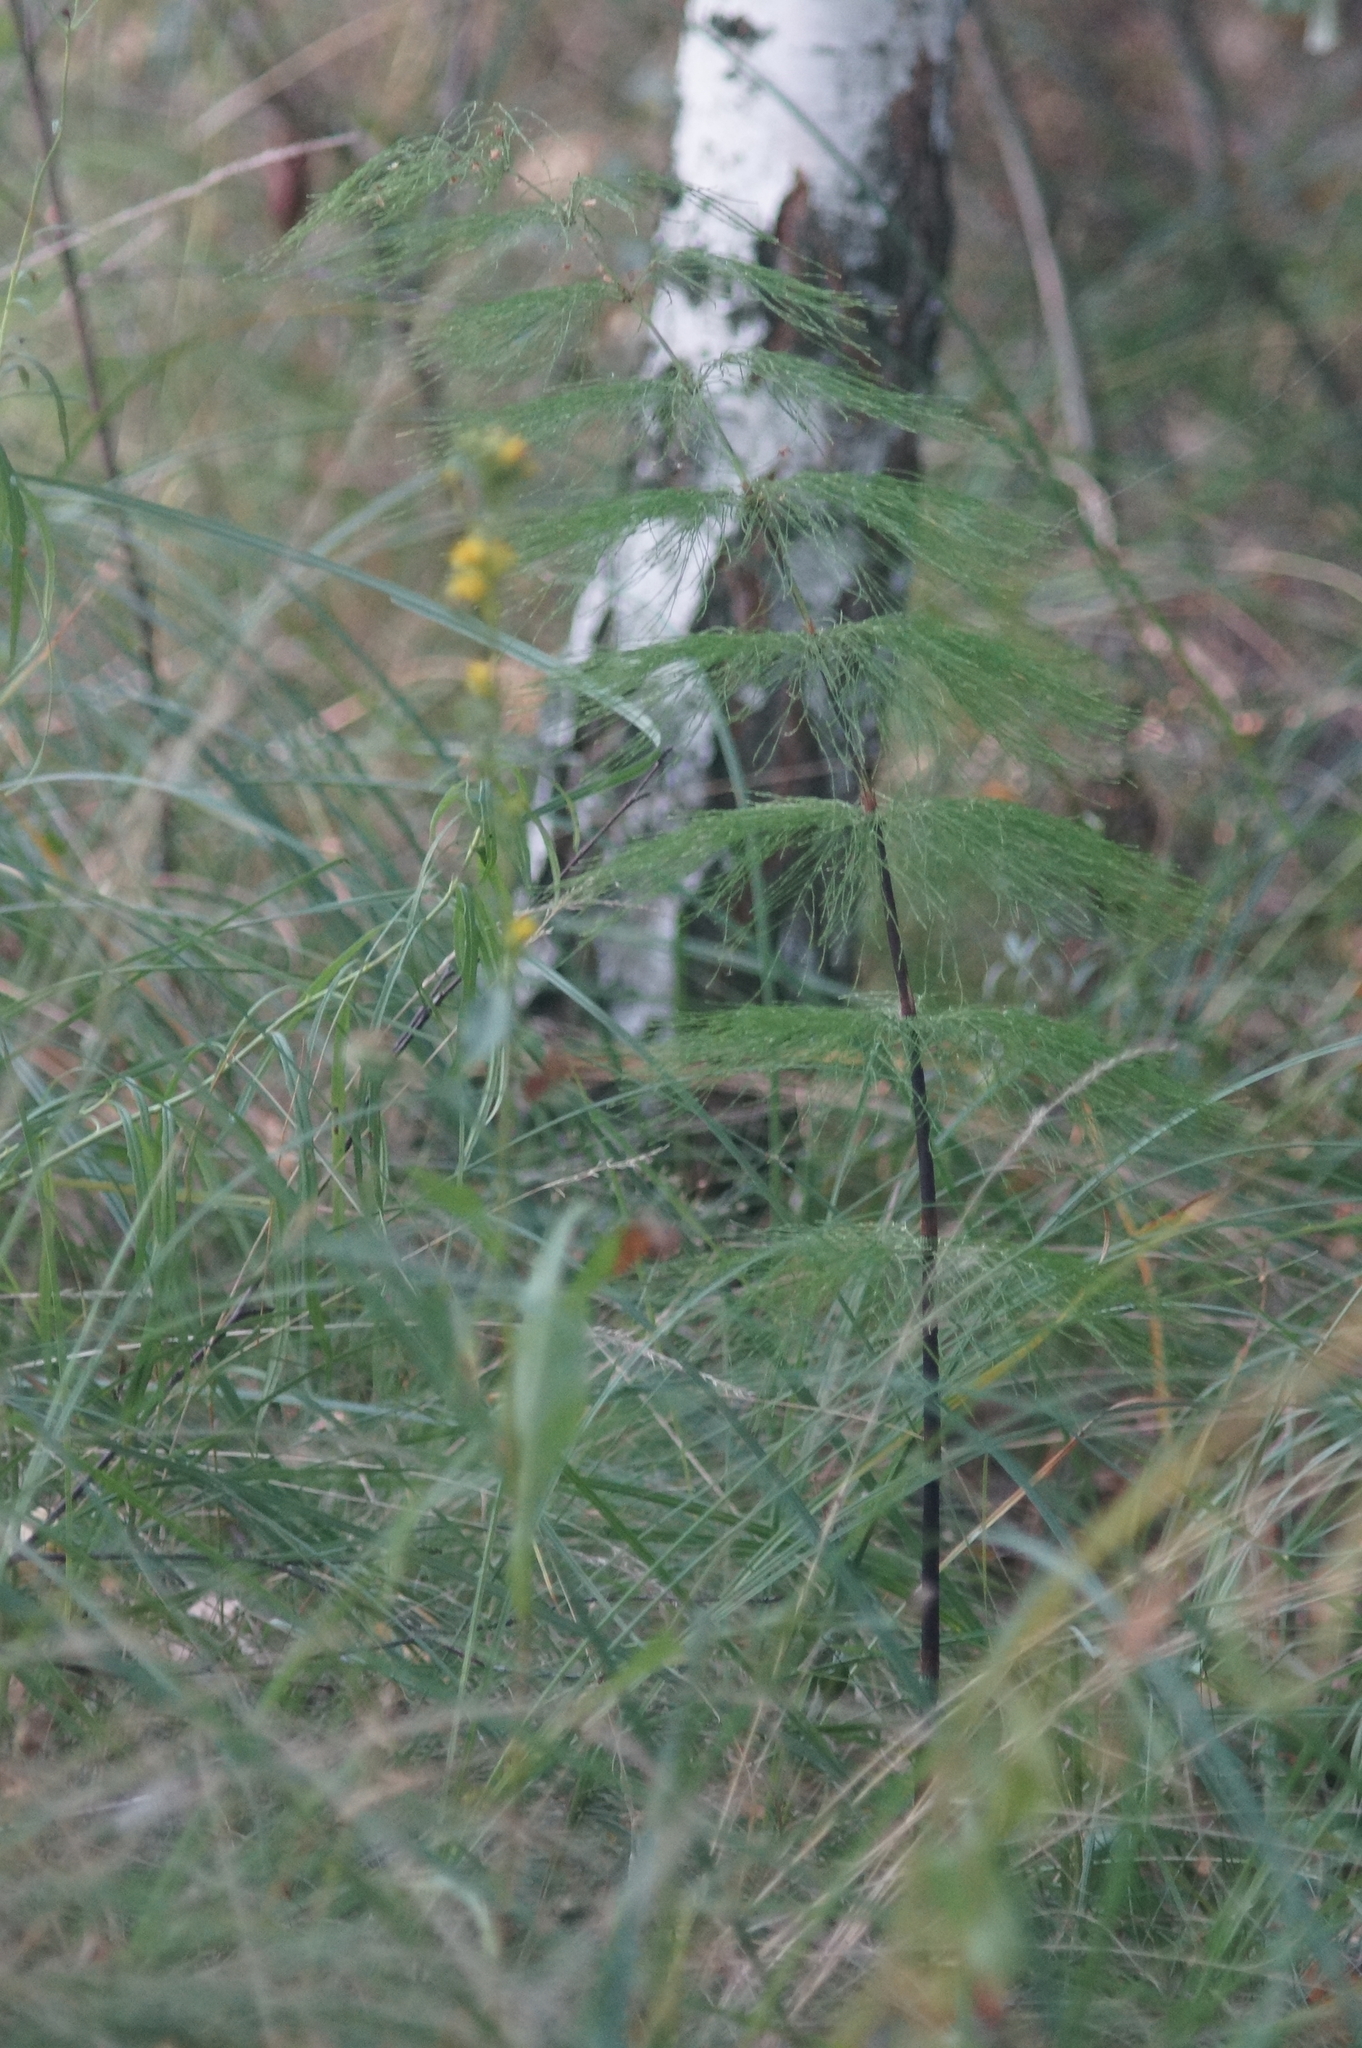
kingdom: Plantae
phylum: Tracheophyta
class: Polypodiopsida
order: Equisetales
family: Equisetaceae
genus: Equisetum
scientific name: Equisetum sylvaticum
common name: Wood horsetail
